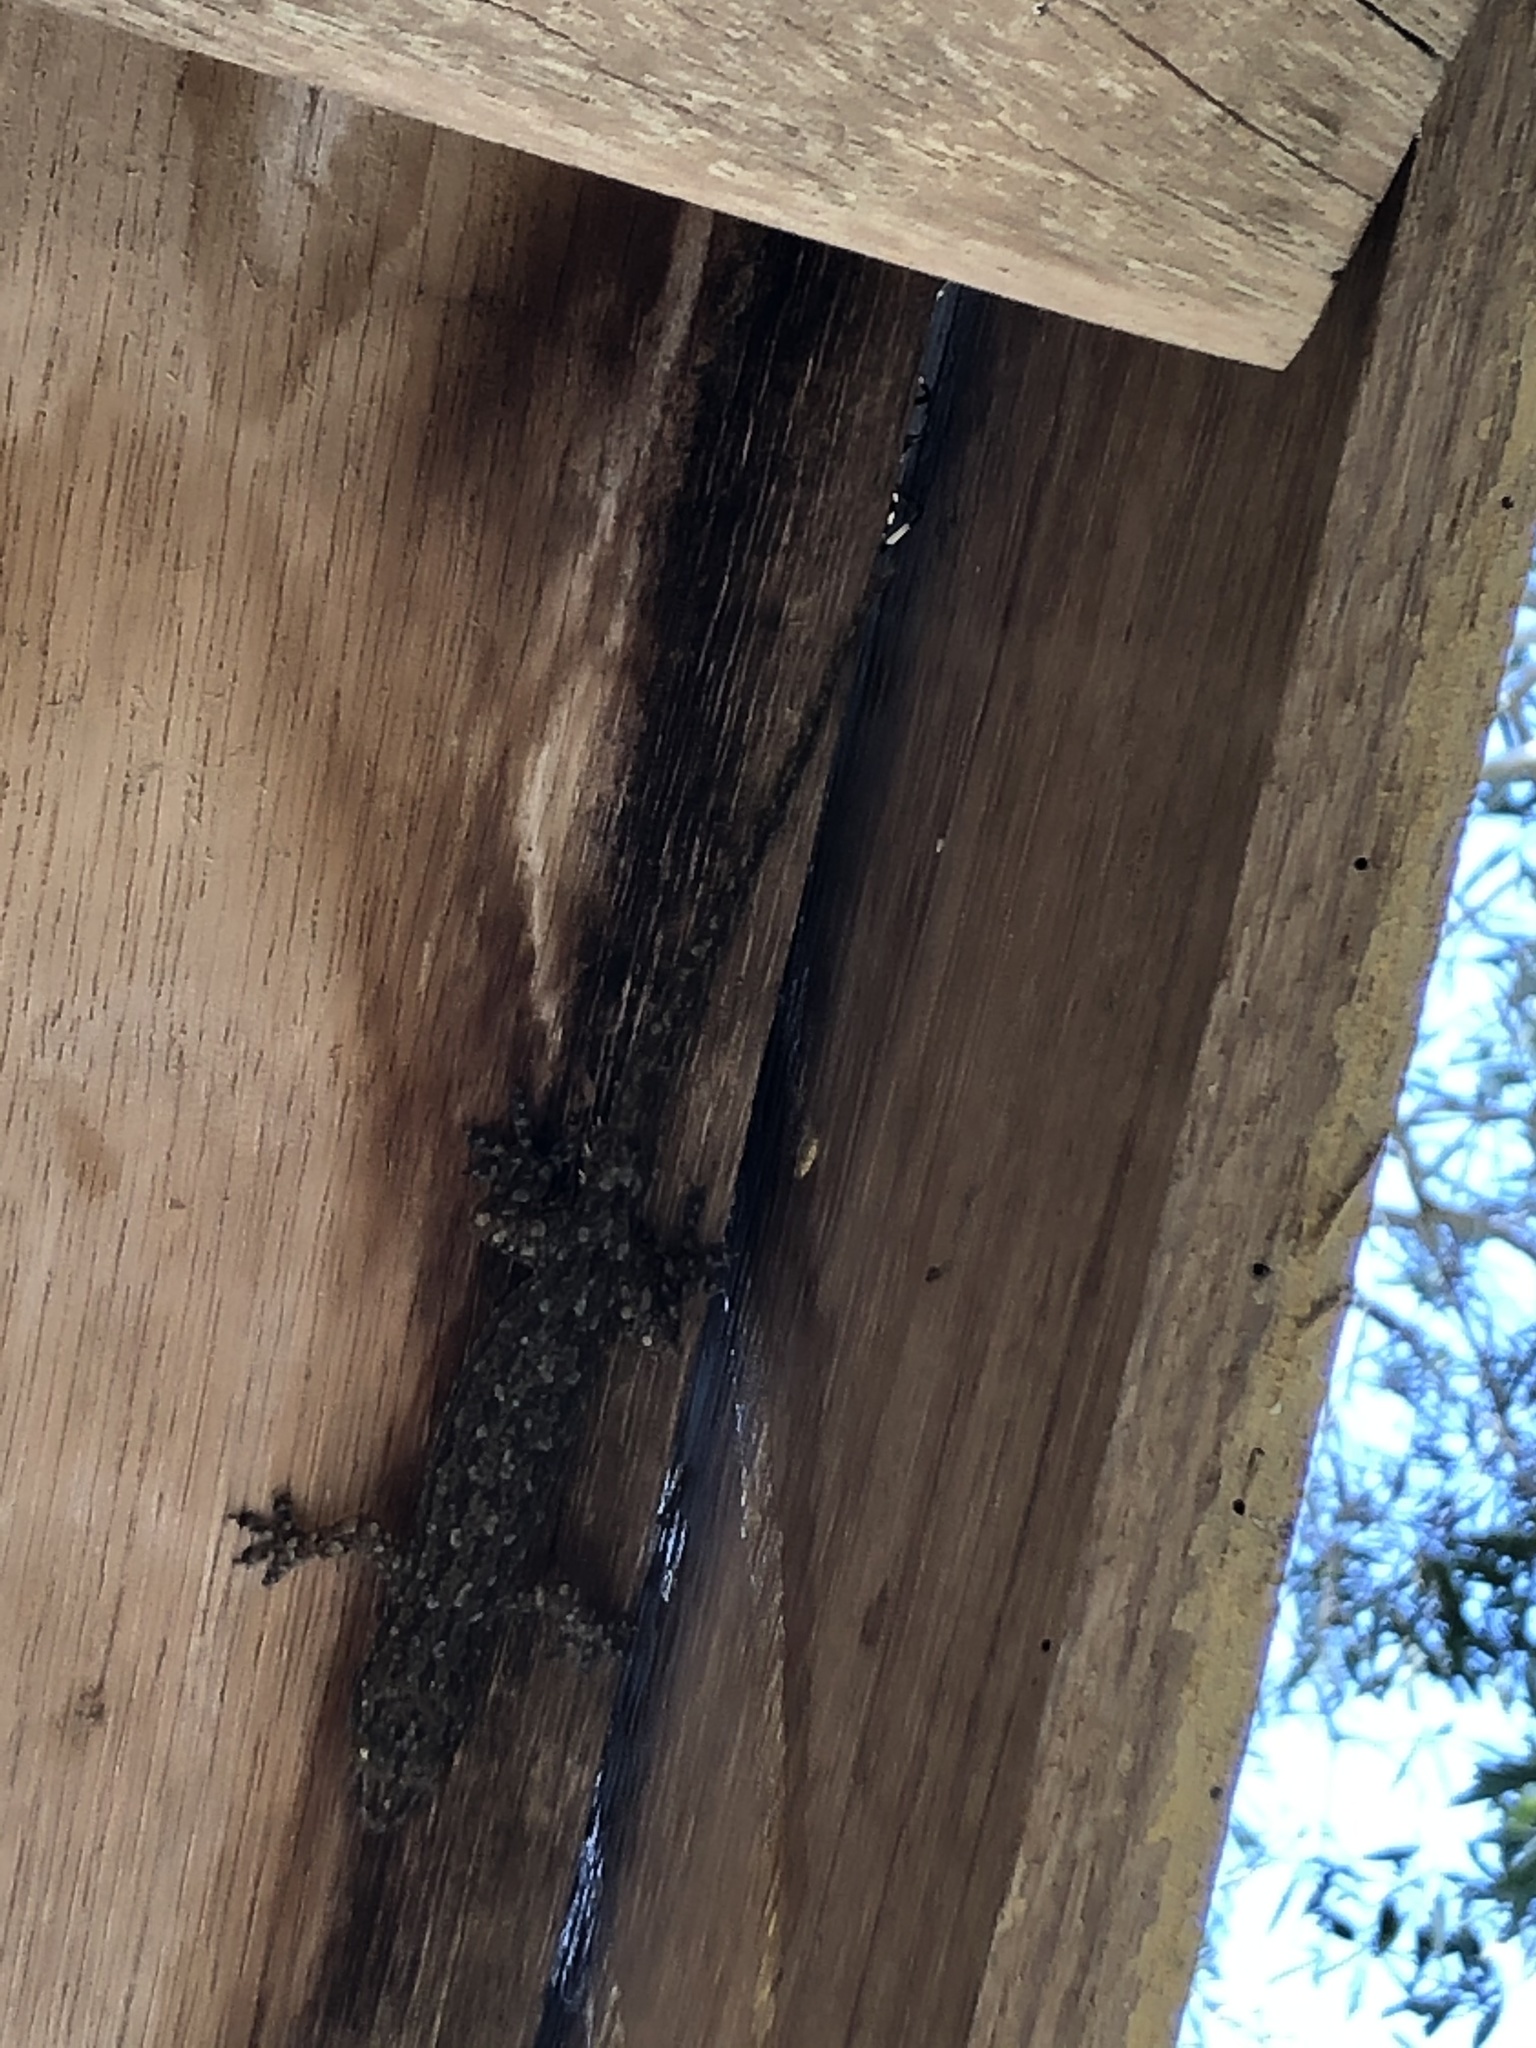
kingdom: Animalia
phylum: Chordata
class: Squamata
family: Gekkonidae
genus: Hemidactylus
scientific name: Hemidactylus garnotii
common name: Indo-pacific gecko
